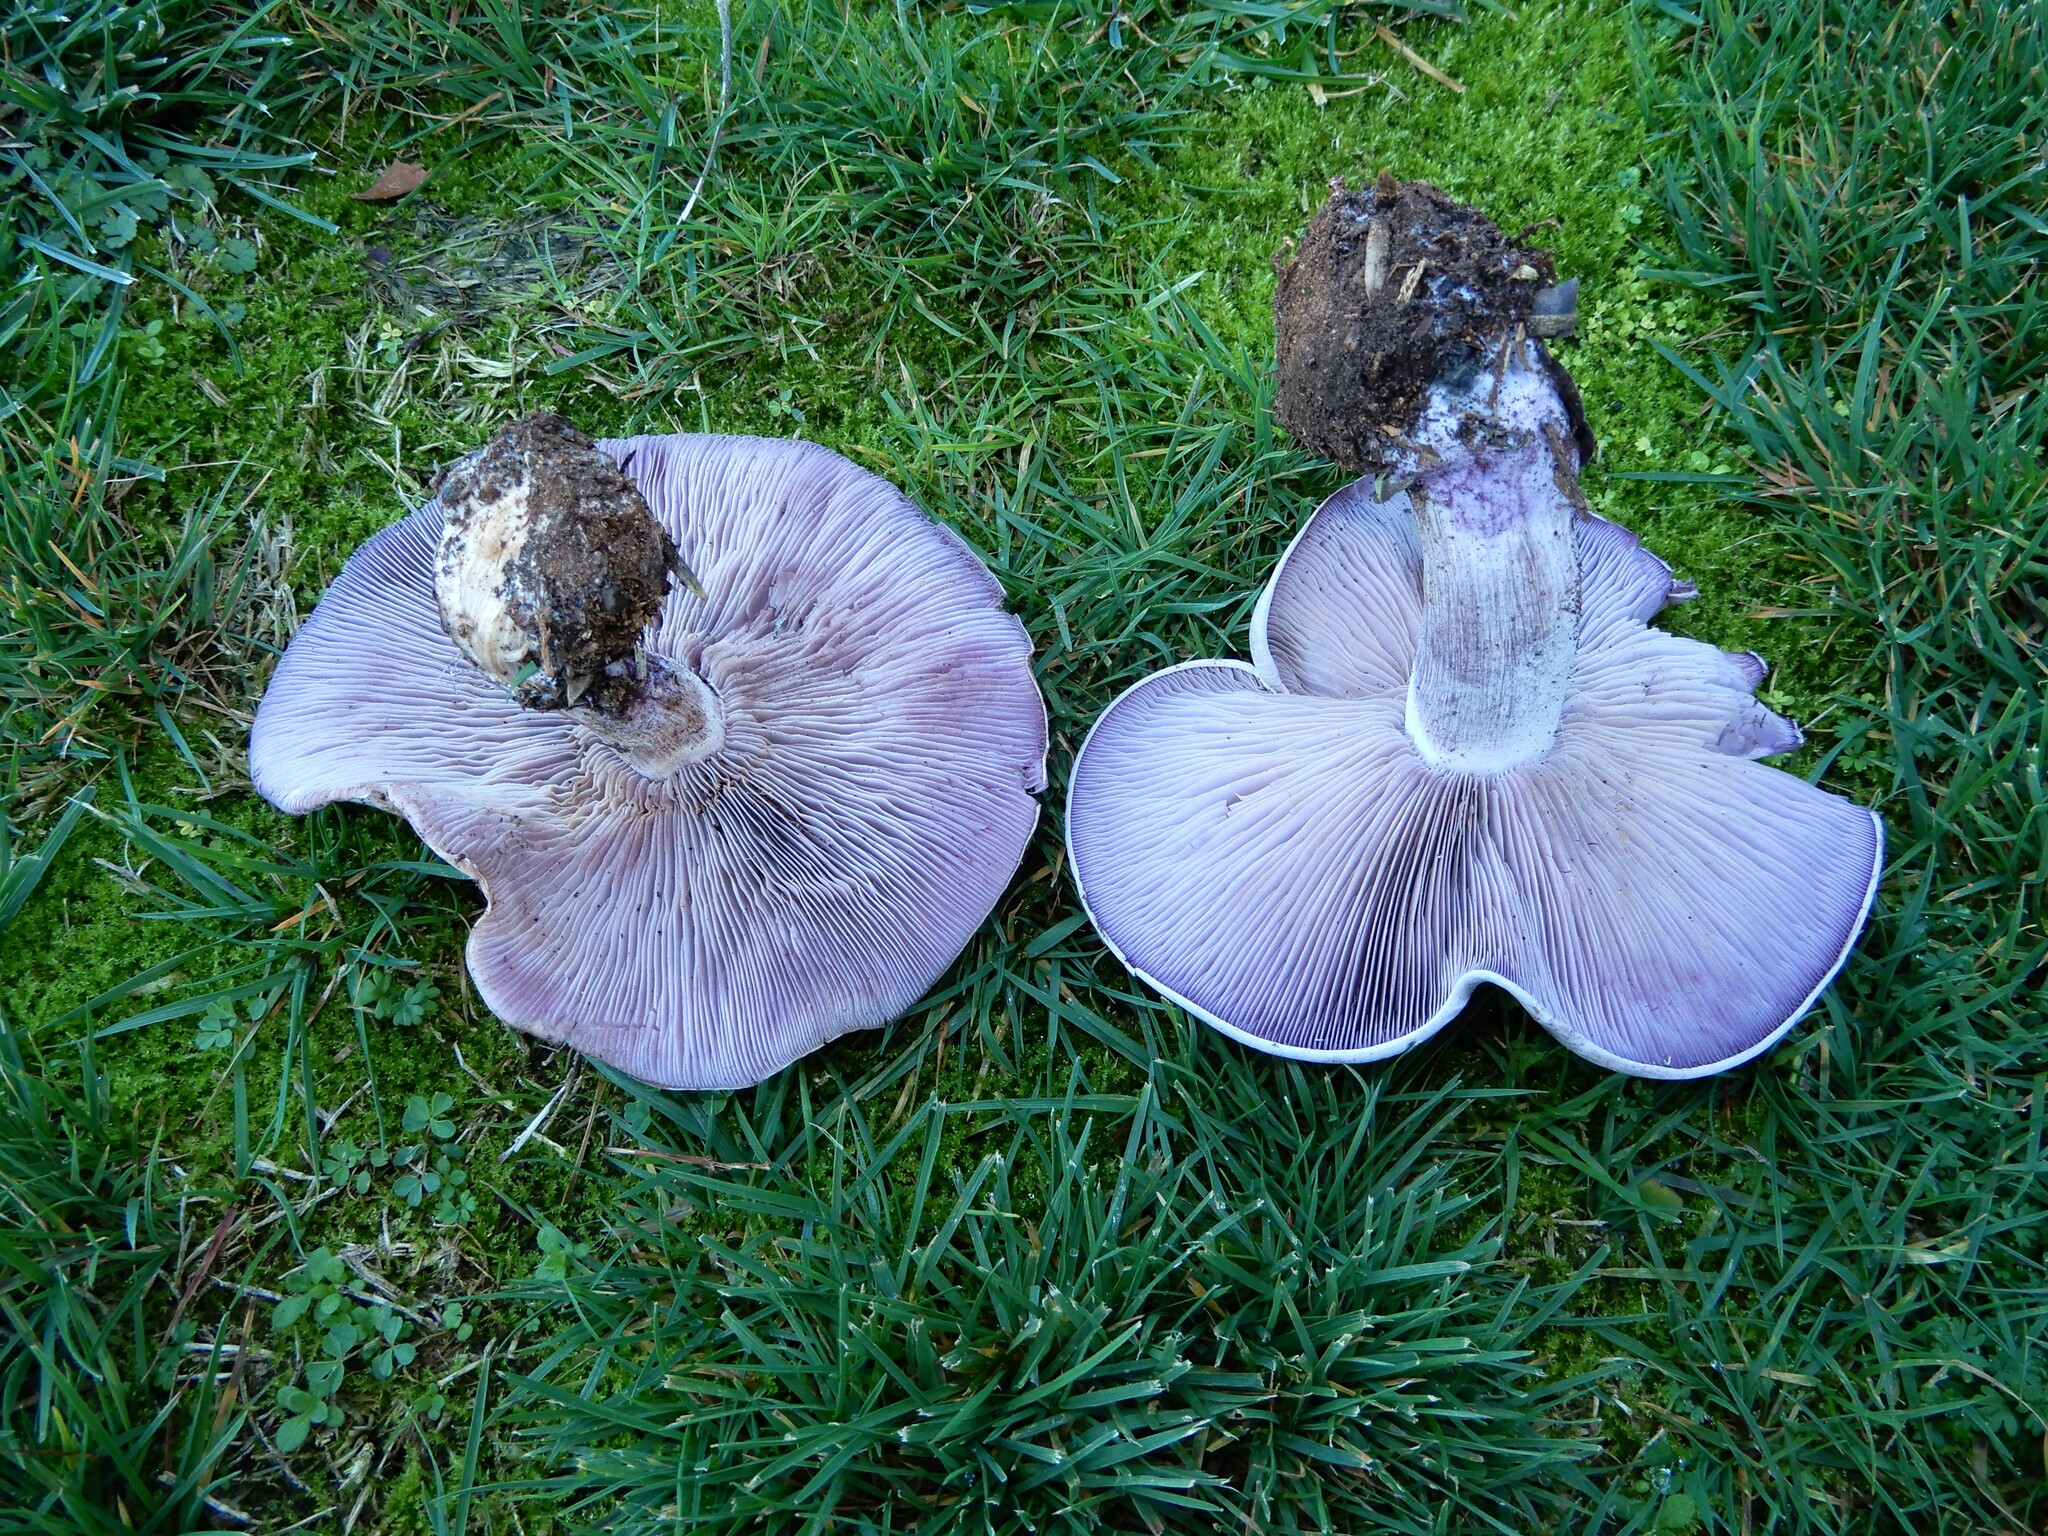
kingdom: Fungi
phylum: Basidiomycota
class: Agaricomycetes
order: Agaricales
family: Tricholomataceae
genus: Collybia
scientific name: Collybia
